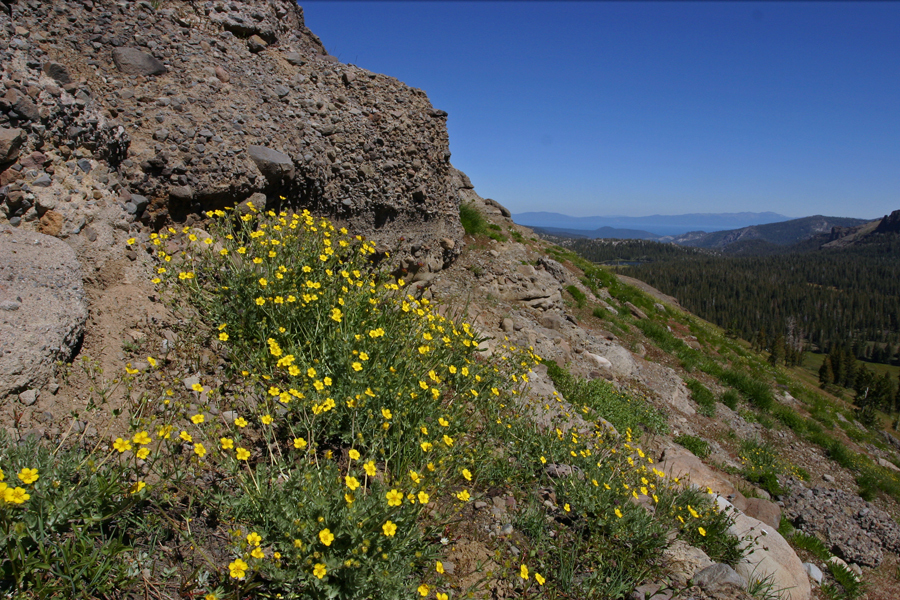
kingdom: Plantae
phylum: Tracheophyta
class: Magnoliopsida
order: Rosales
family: Rosaceae
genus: Potentilla
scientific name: Potentilla breweri
